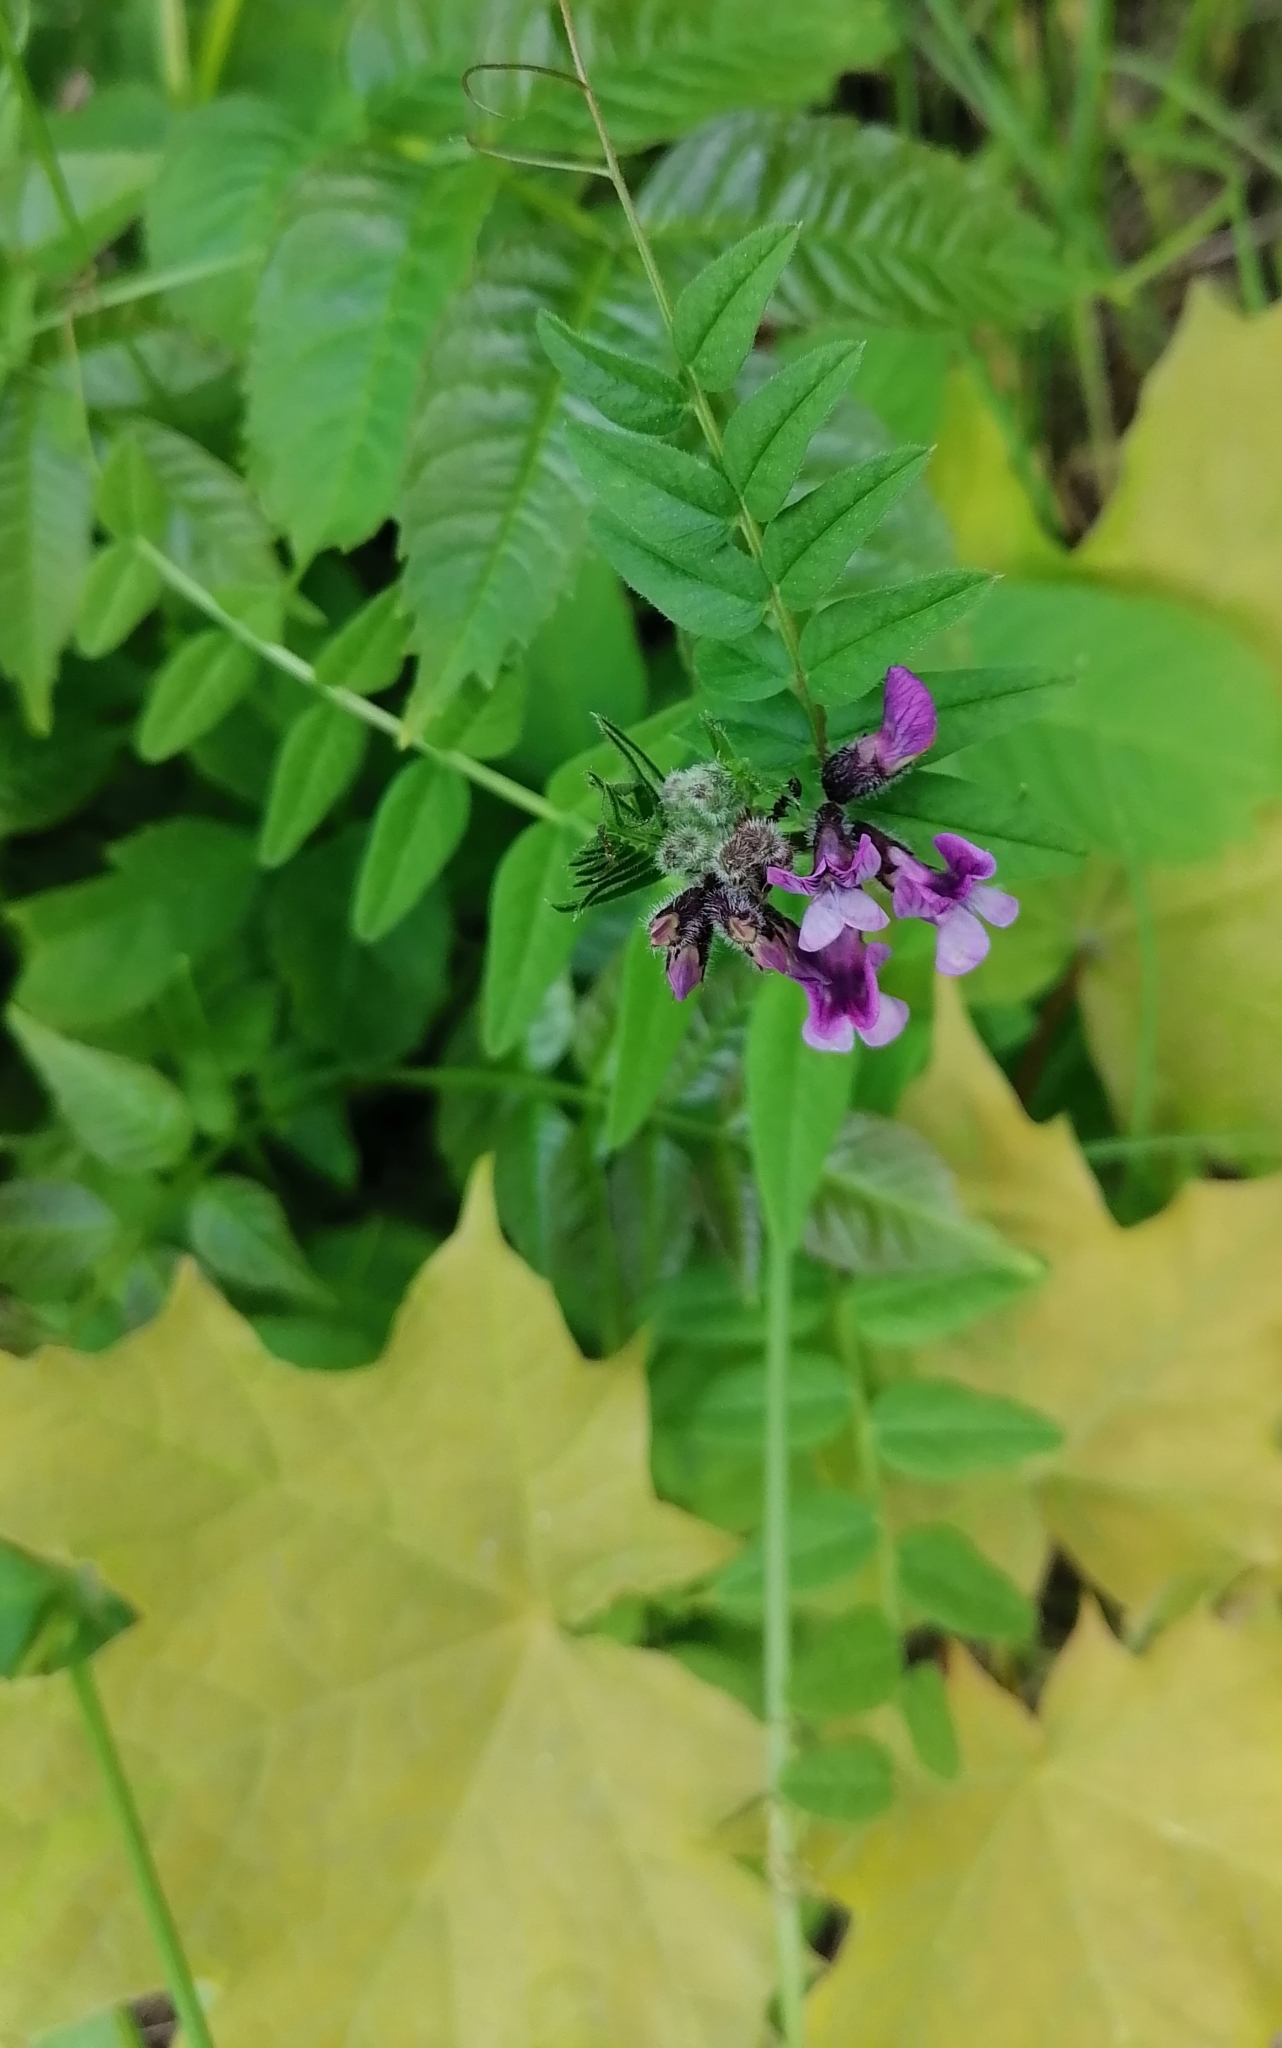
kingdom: Plantae
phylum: Tracheophyta
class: Magnoliopsida
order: Fabales
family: Fabaceae
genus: Vicia
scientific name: Vicia sepium
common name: Bush vetch
